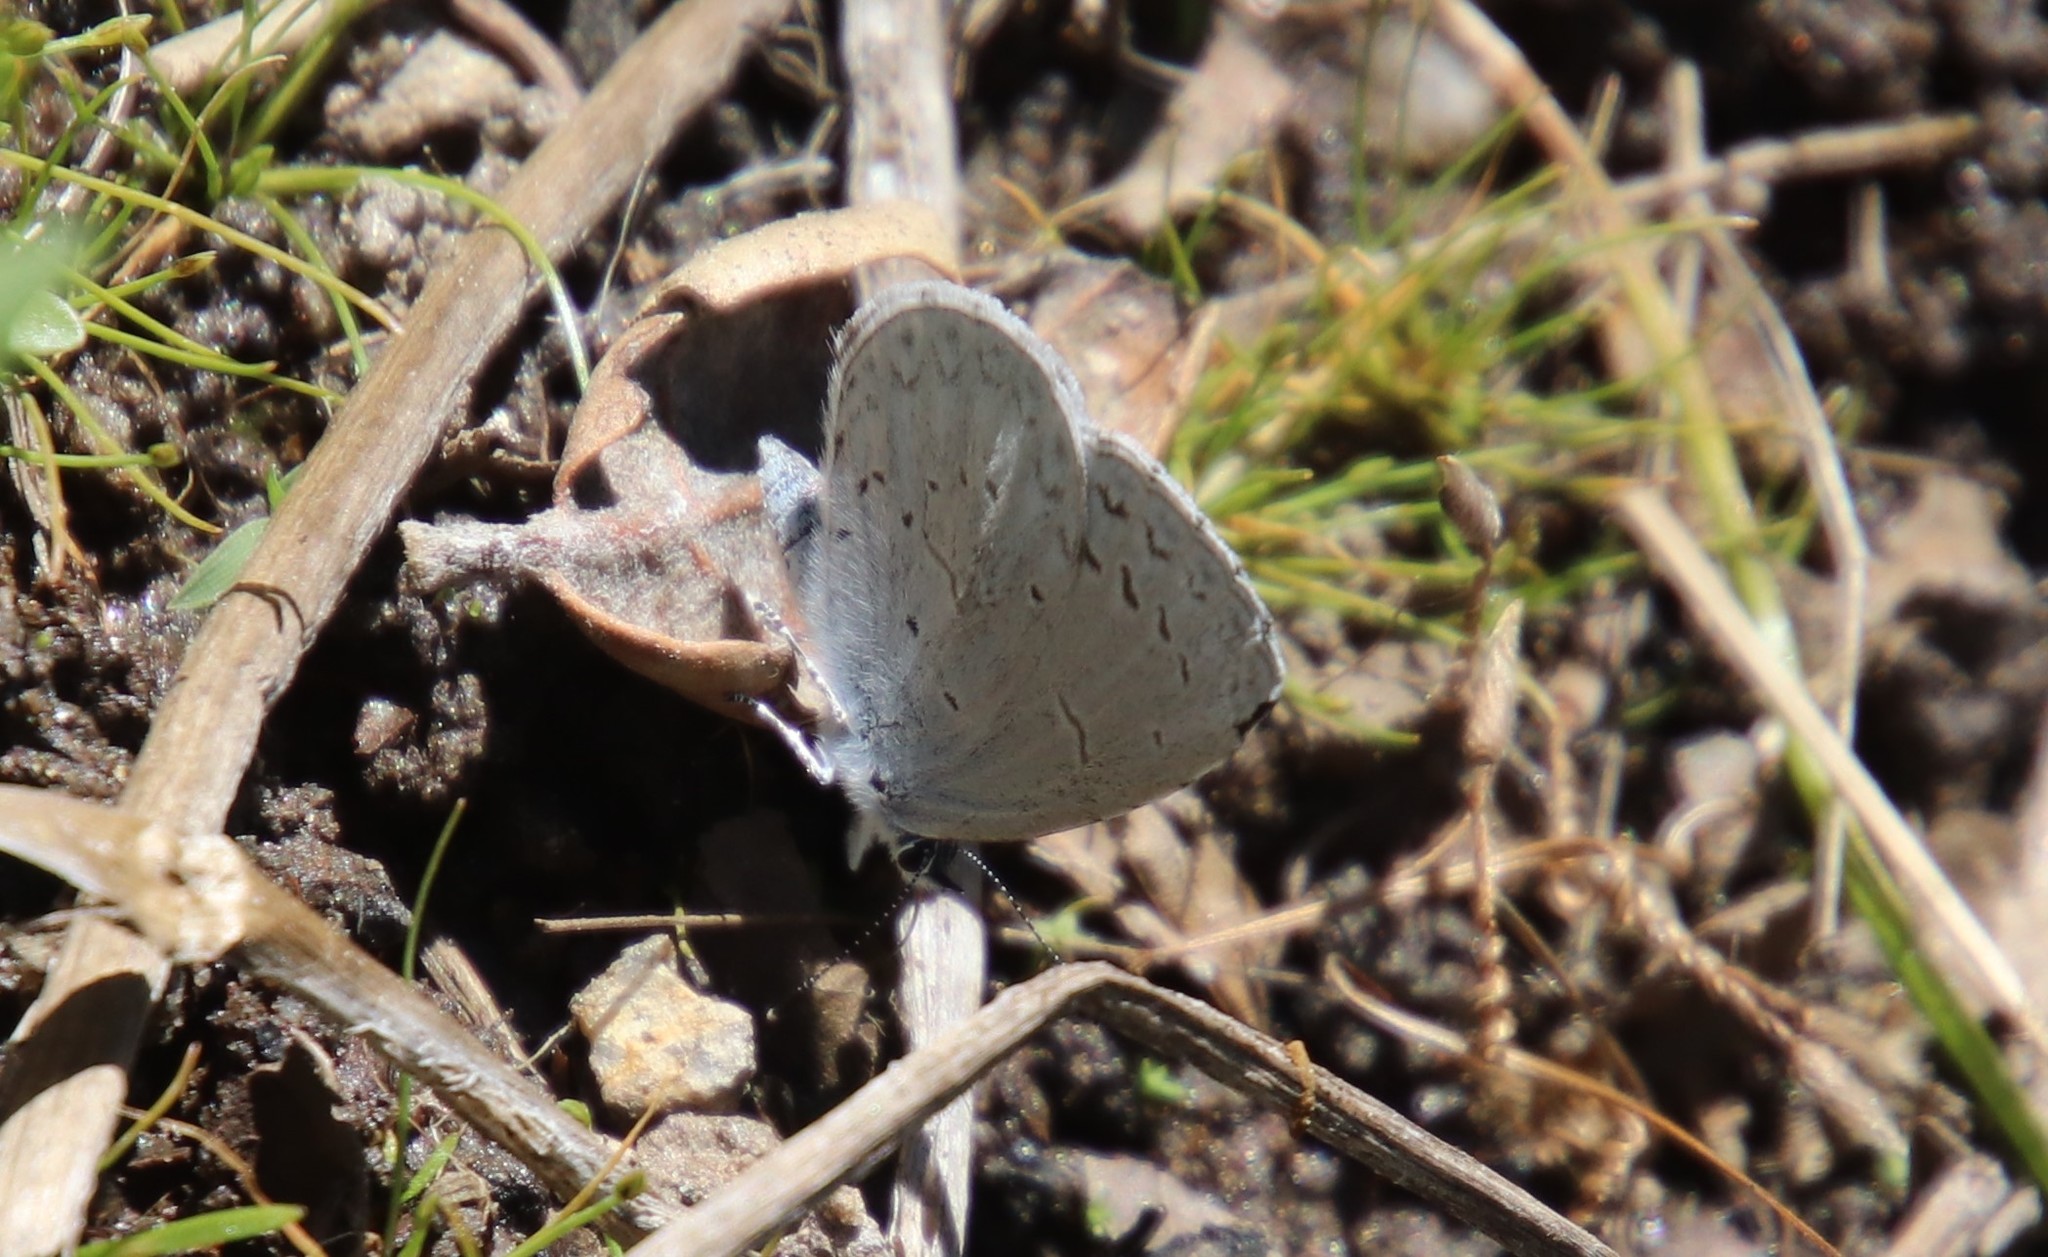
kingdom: Animalia
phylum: Arthropoda
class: Insecta
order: Lepidoptera
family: Lycaenidae
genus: Celastrina
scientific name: Celastrina ladon
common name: Spring azure
